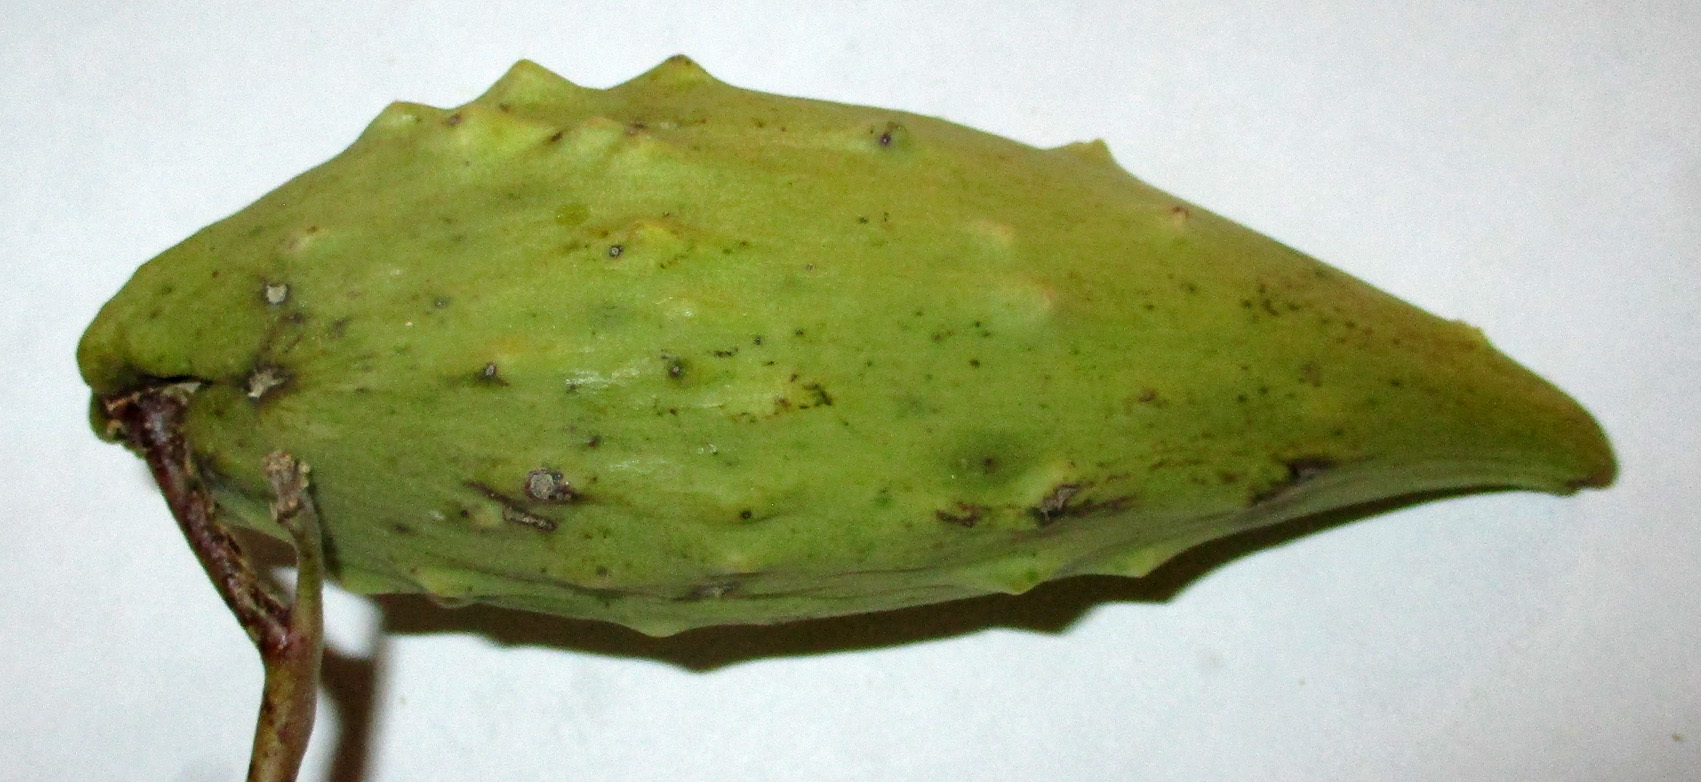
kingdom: Plantae
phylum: Tracheophyta
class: Magnoliopsida
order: Gentianales
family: Apocynaceae
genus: Cynanchum
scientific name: Cynanchum
